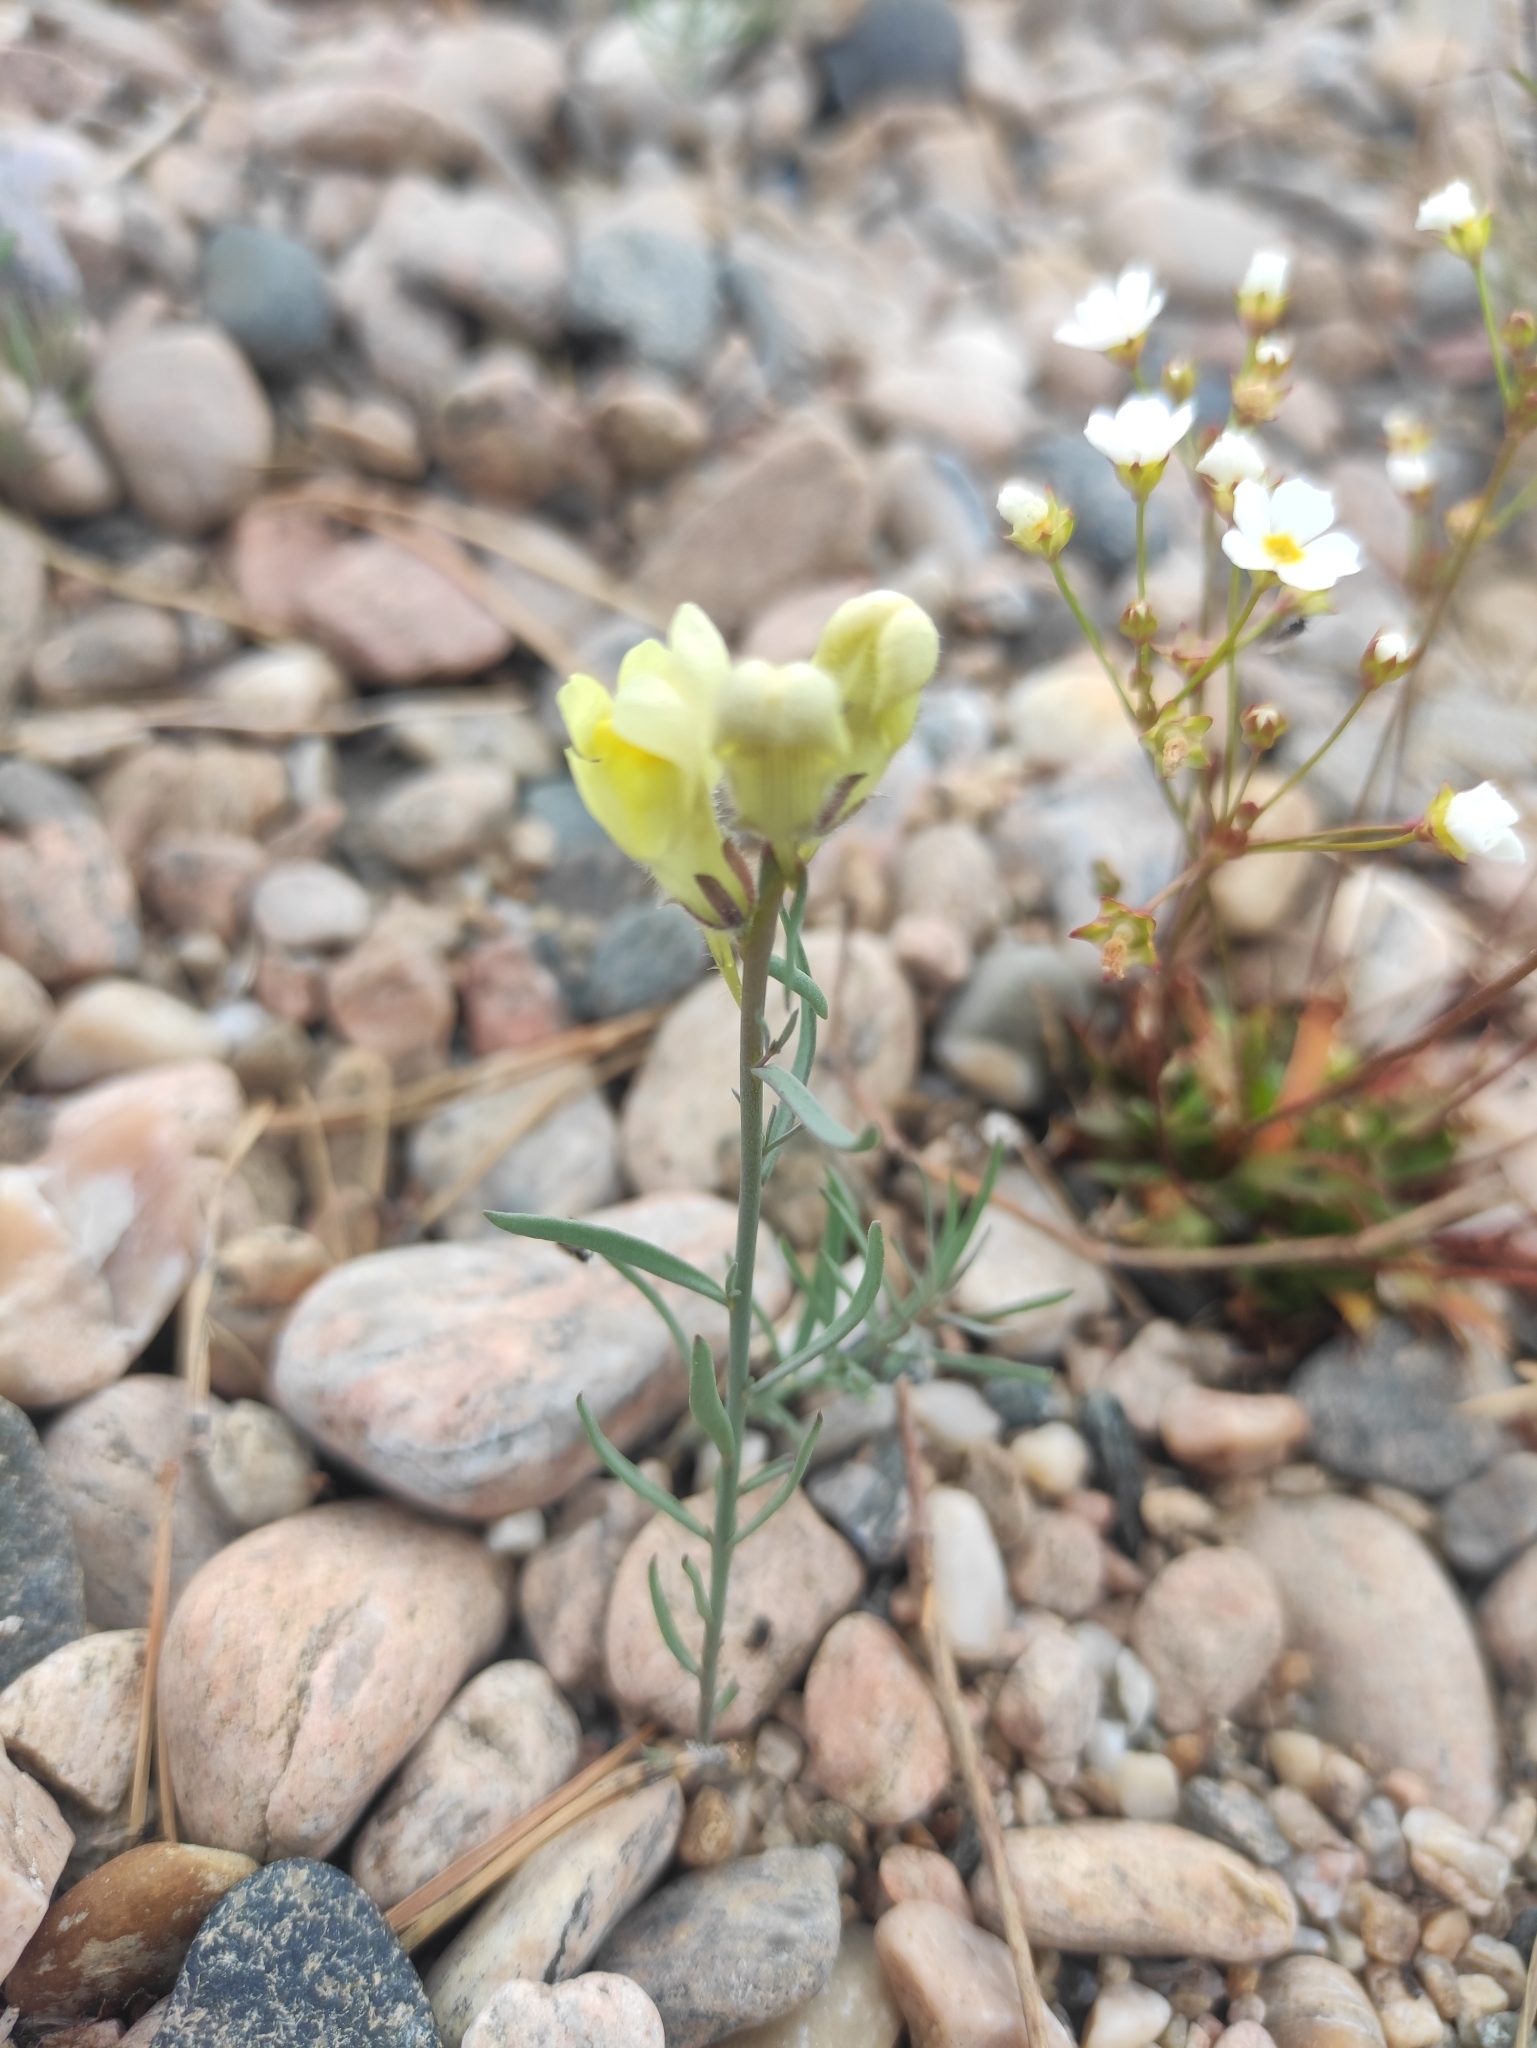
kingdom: Plantae
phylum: Tracheophyta
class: Magnoliopsida
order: Lamiales
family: Plantaginaceae
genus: Linaria
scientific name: Linaria buriatica
